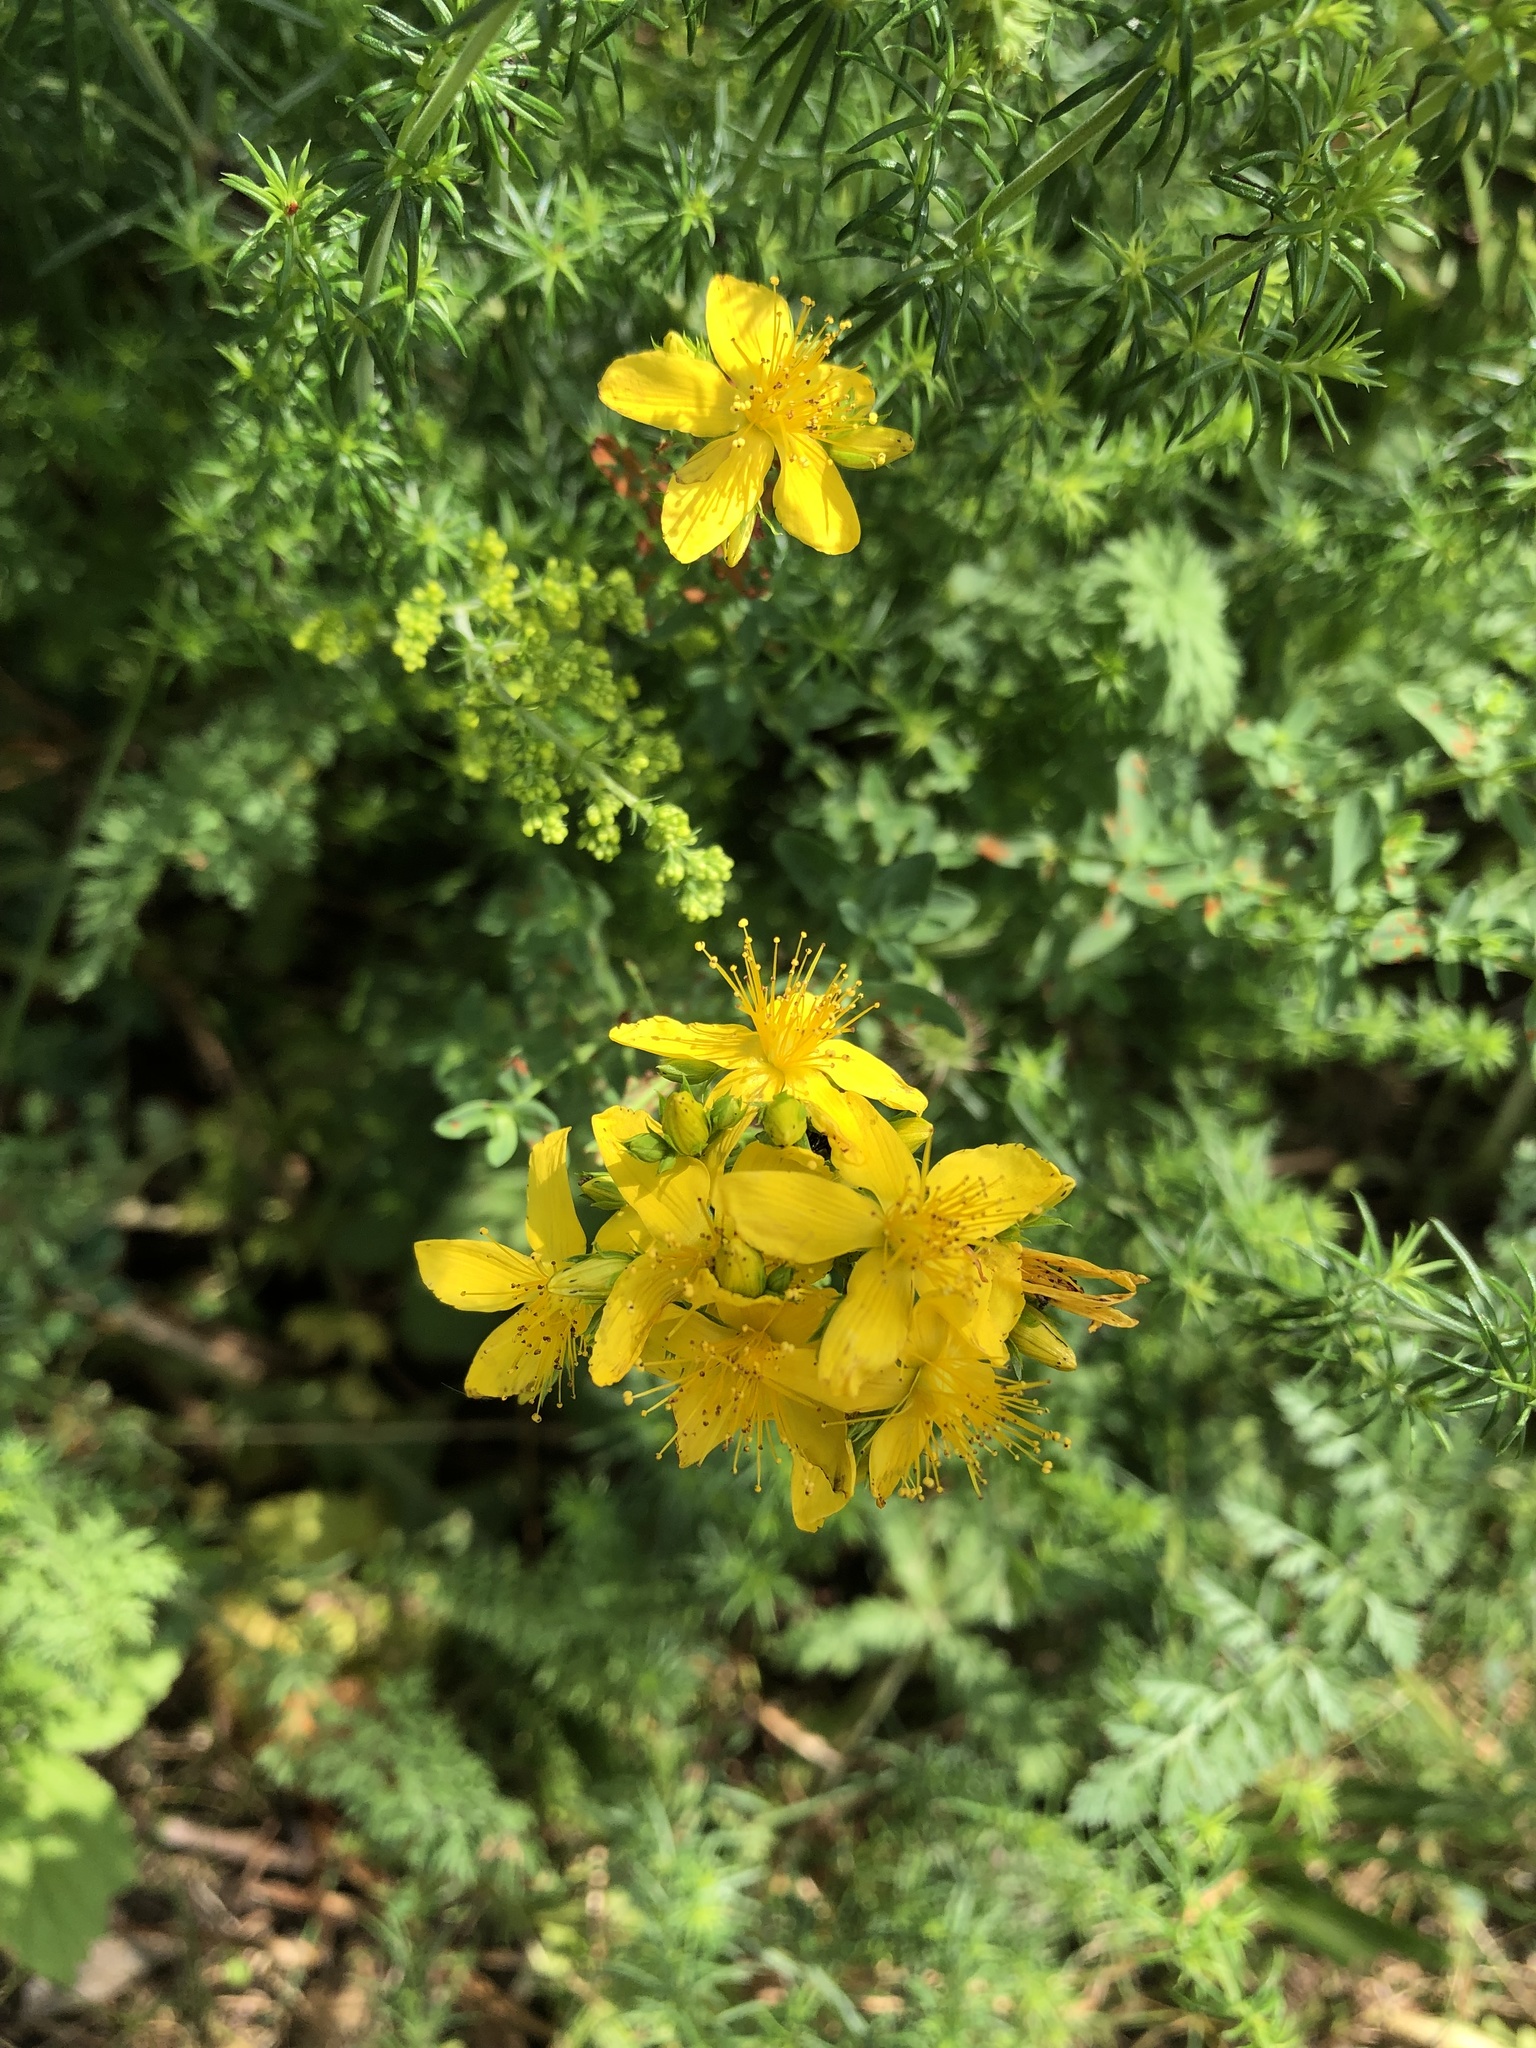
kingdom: Plantae
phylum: Tracheophyta
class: Magnoliopsida
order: Malpighiales
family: Hypericaceae
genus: Hypericum
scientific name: Hypericum perforatum
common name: Common st. johnswort
